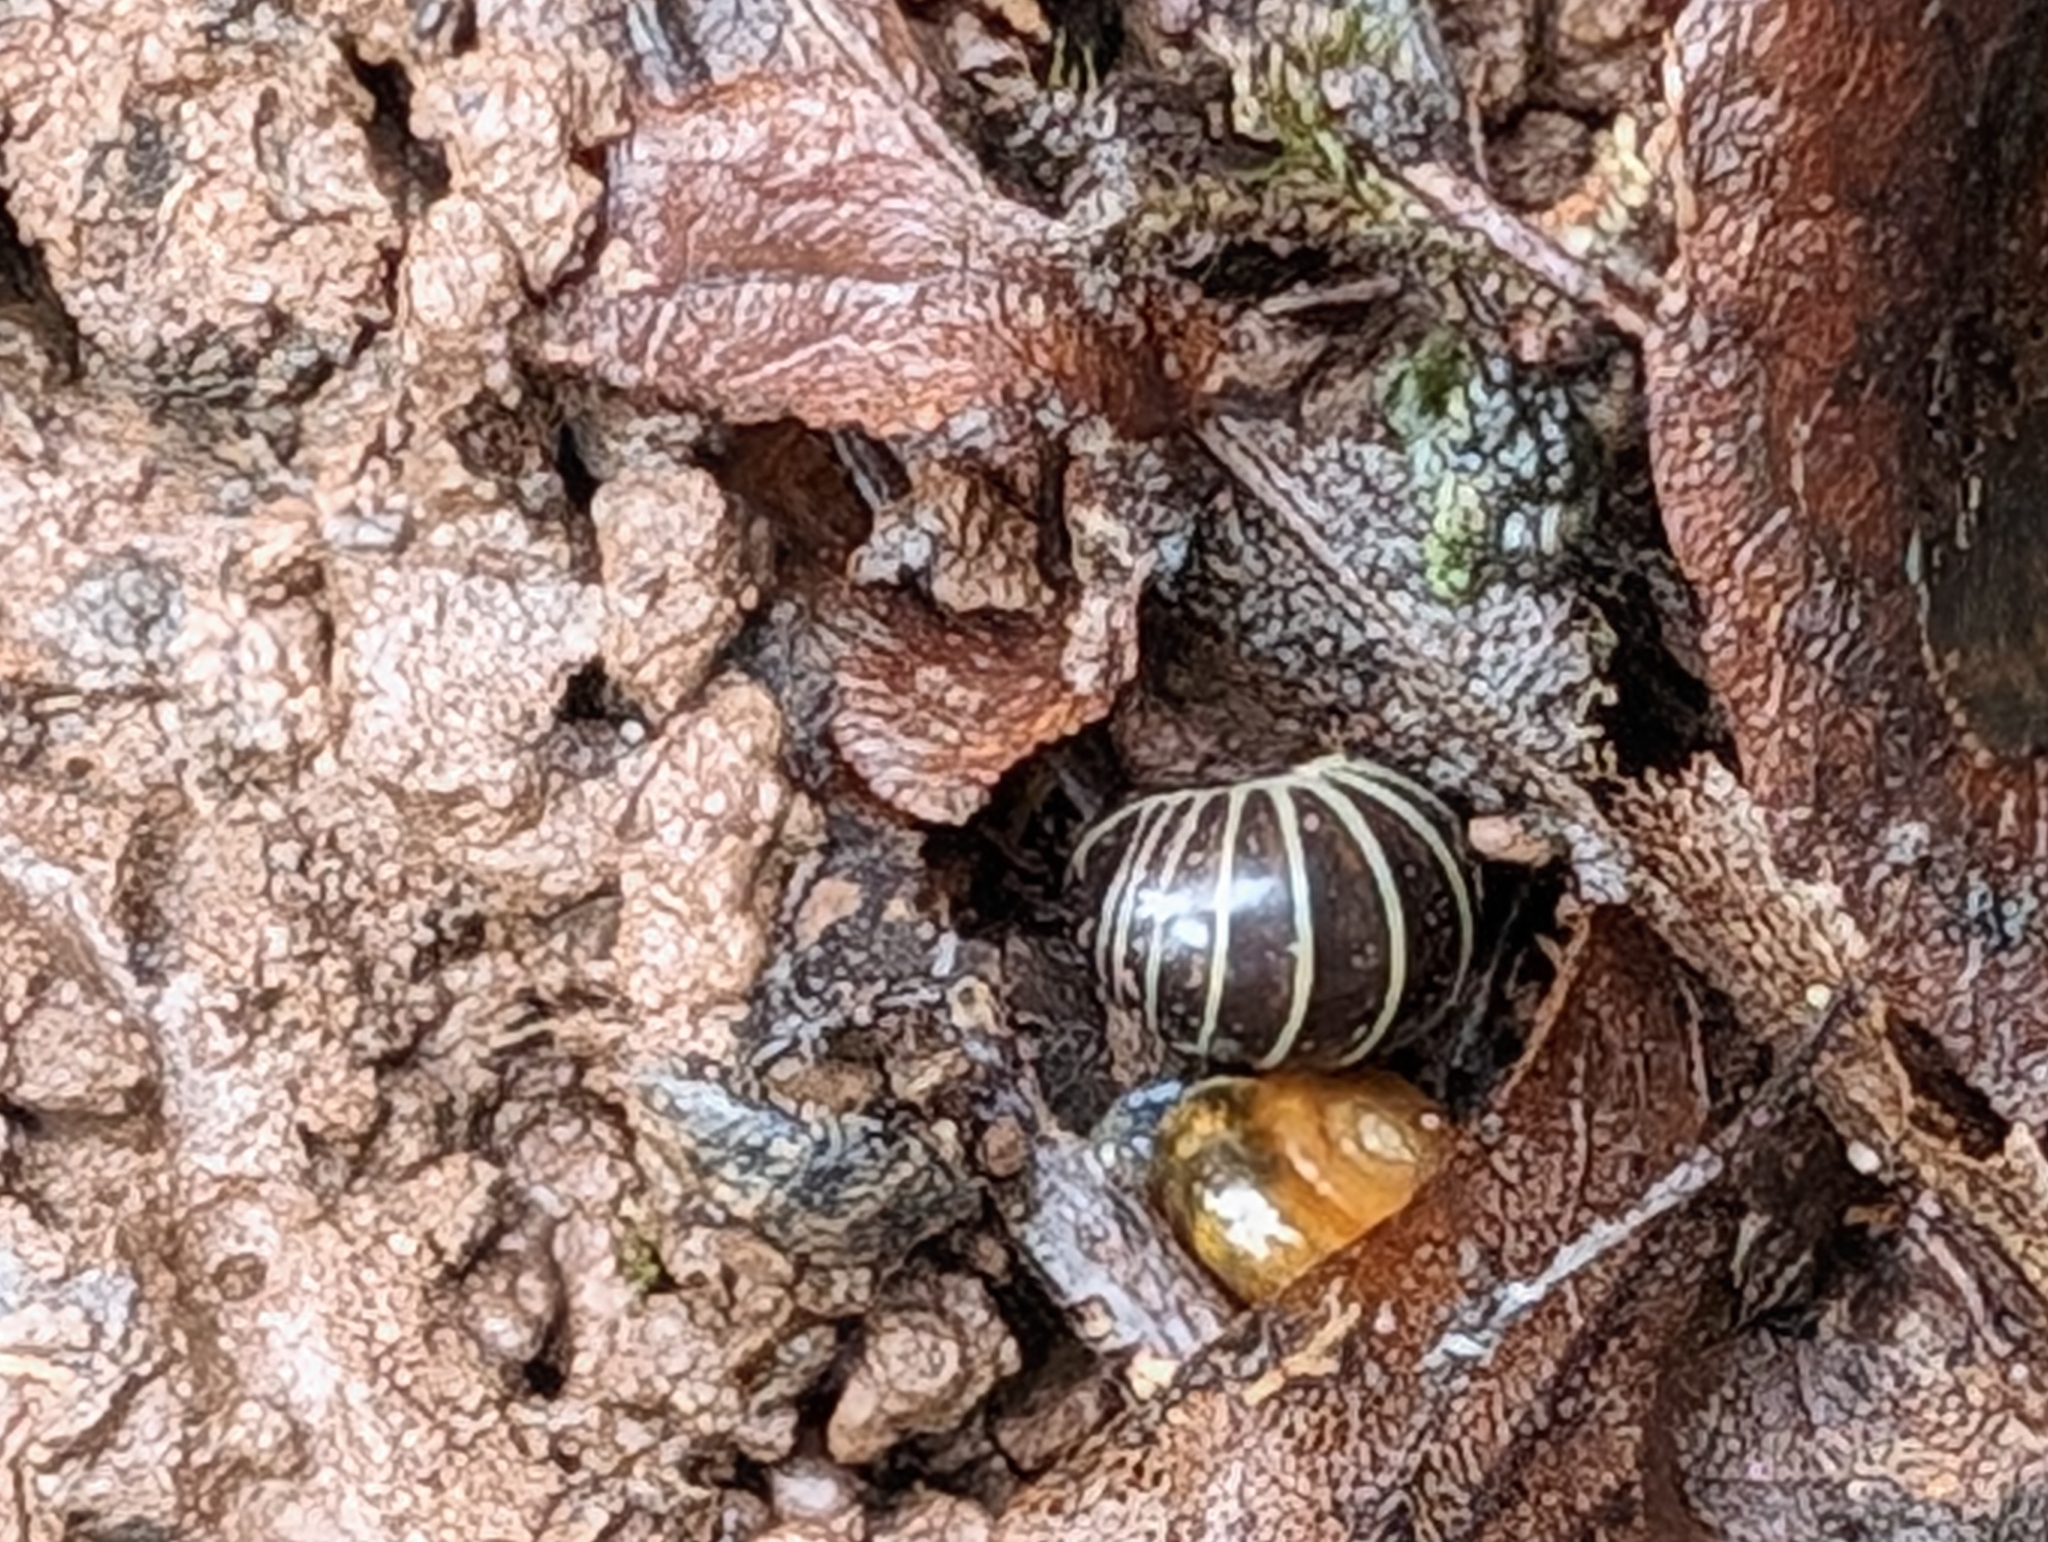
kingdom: Animalia
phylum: Arthropoda
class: Diplopoda
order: Glomerida
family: Glomeridae
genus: Glomeris
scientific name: Glomeris marginata
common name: Bordered pill millipede
